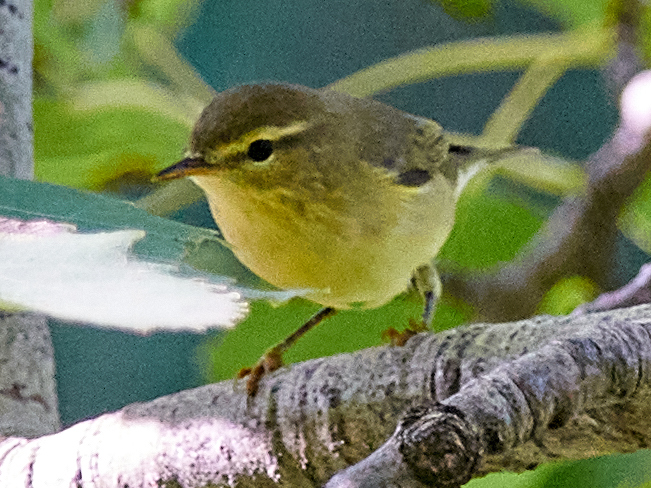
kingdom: Animalia
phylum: Chordata
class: Aves
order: Passeriformes
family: Phylloscopidae
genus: Phylloscopus
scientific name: Phylloscopus trochilus
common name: Willow warbler
